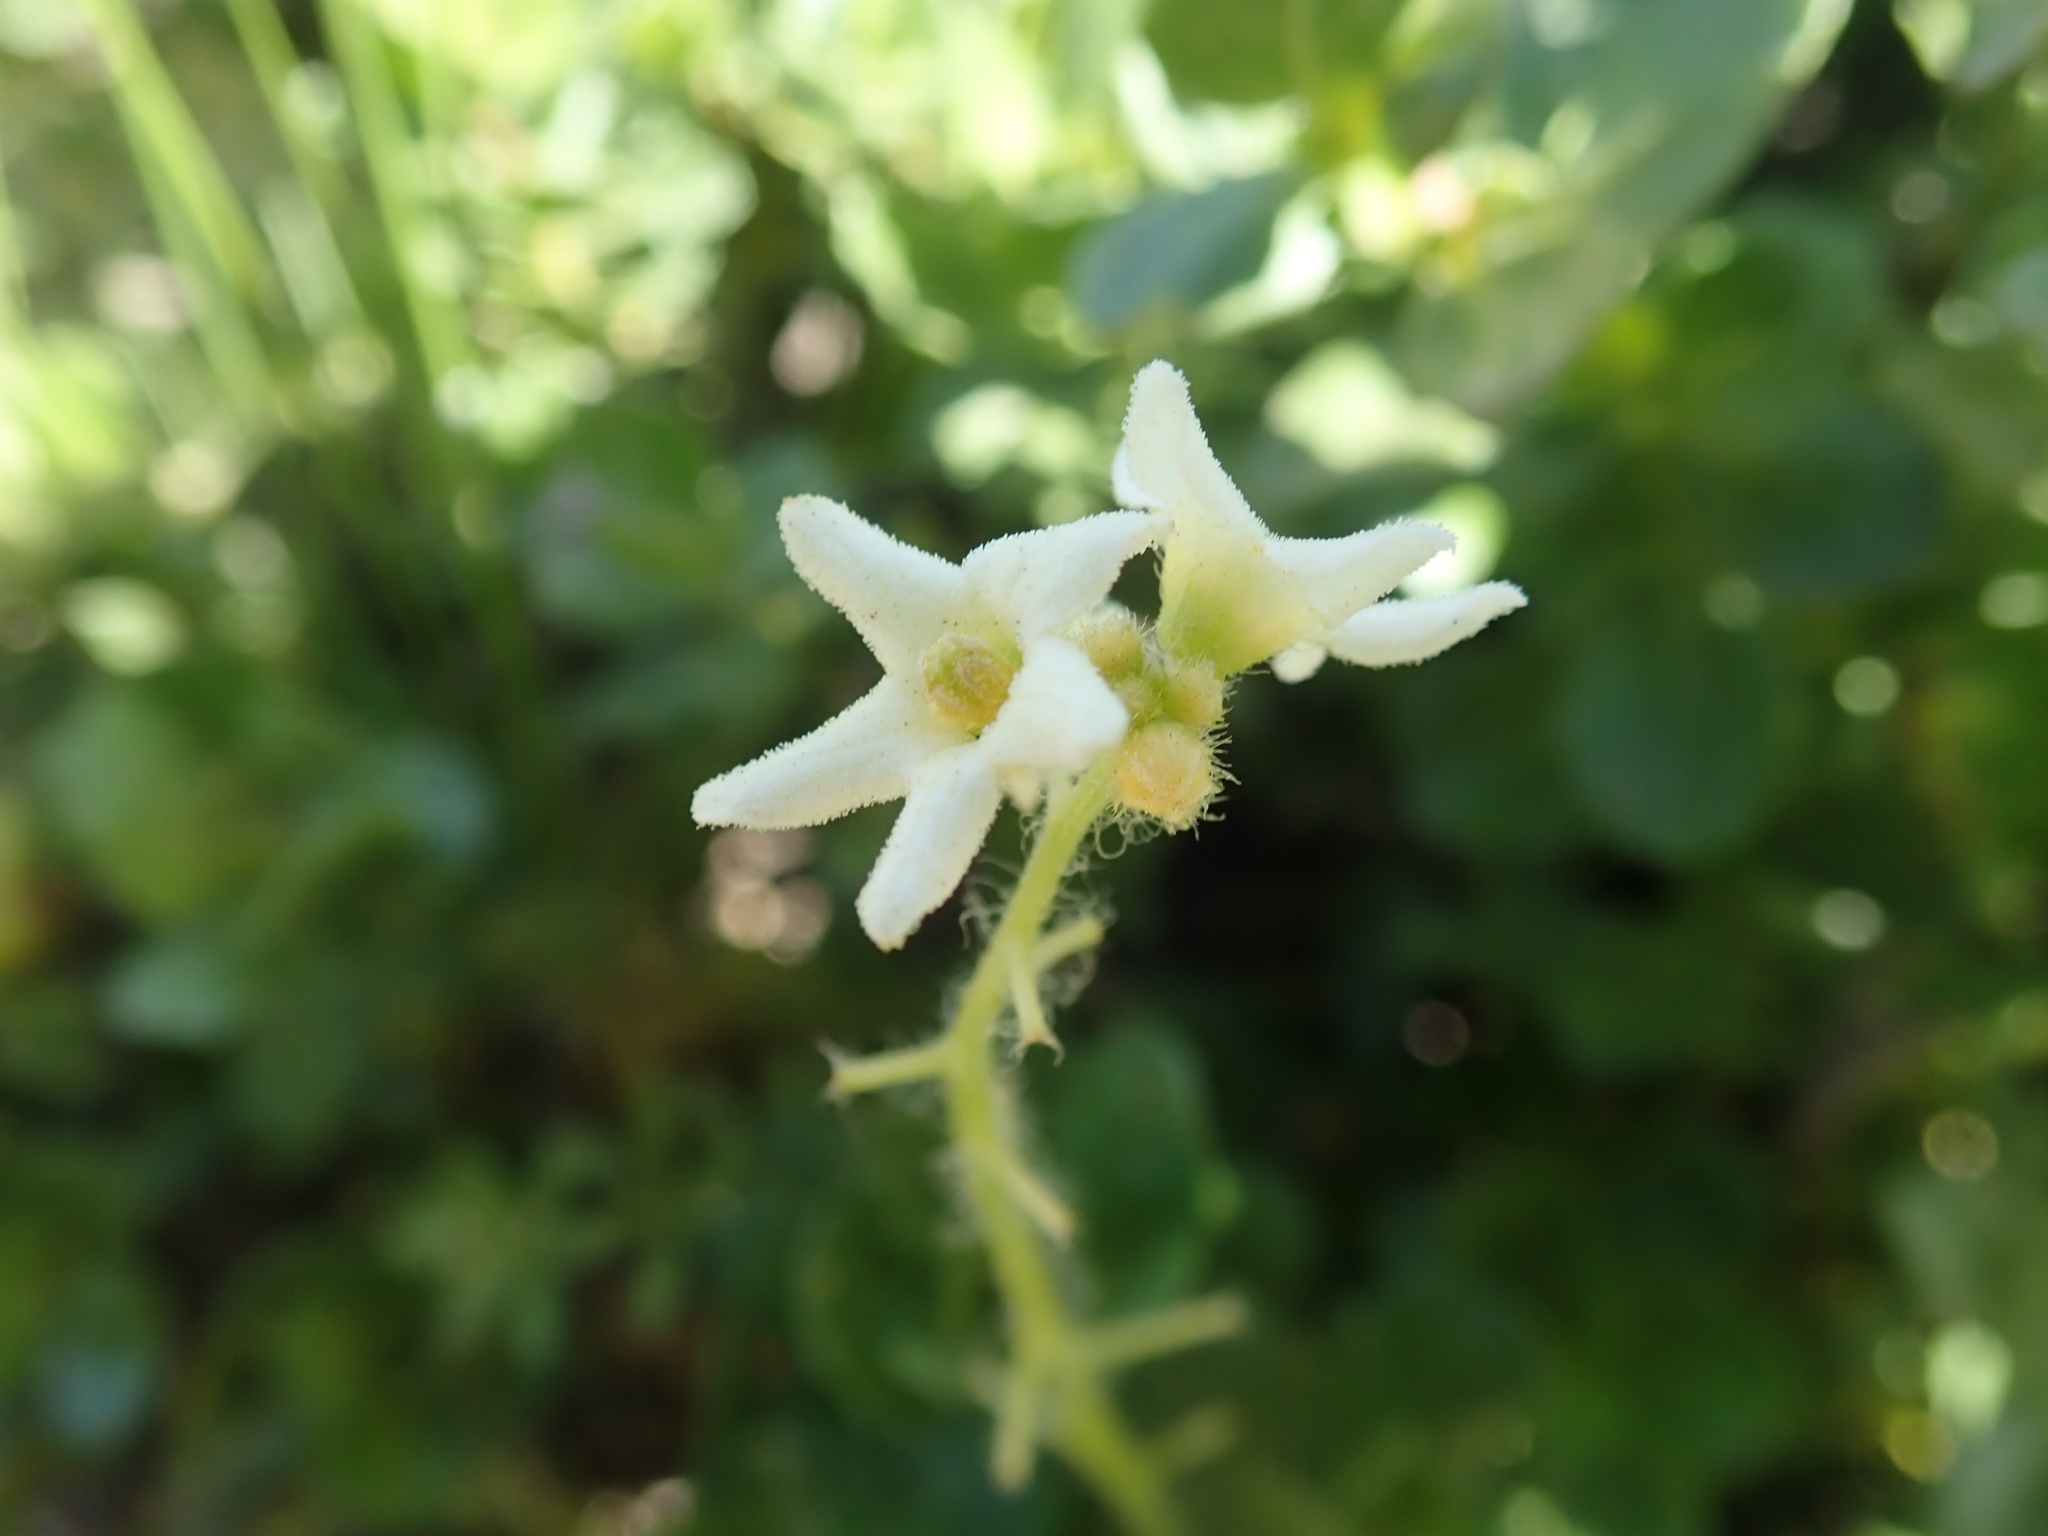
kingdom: Plantae
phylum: Tracheophyta
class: Magnoliopsida
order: Cucurbitales
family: Cucurbitaceae
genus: Marah
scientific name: Marah oregana
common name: Coastal manroot
